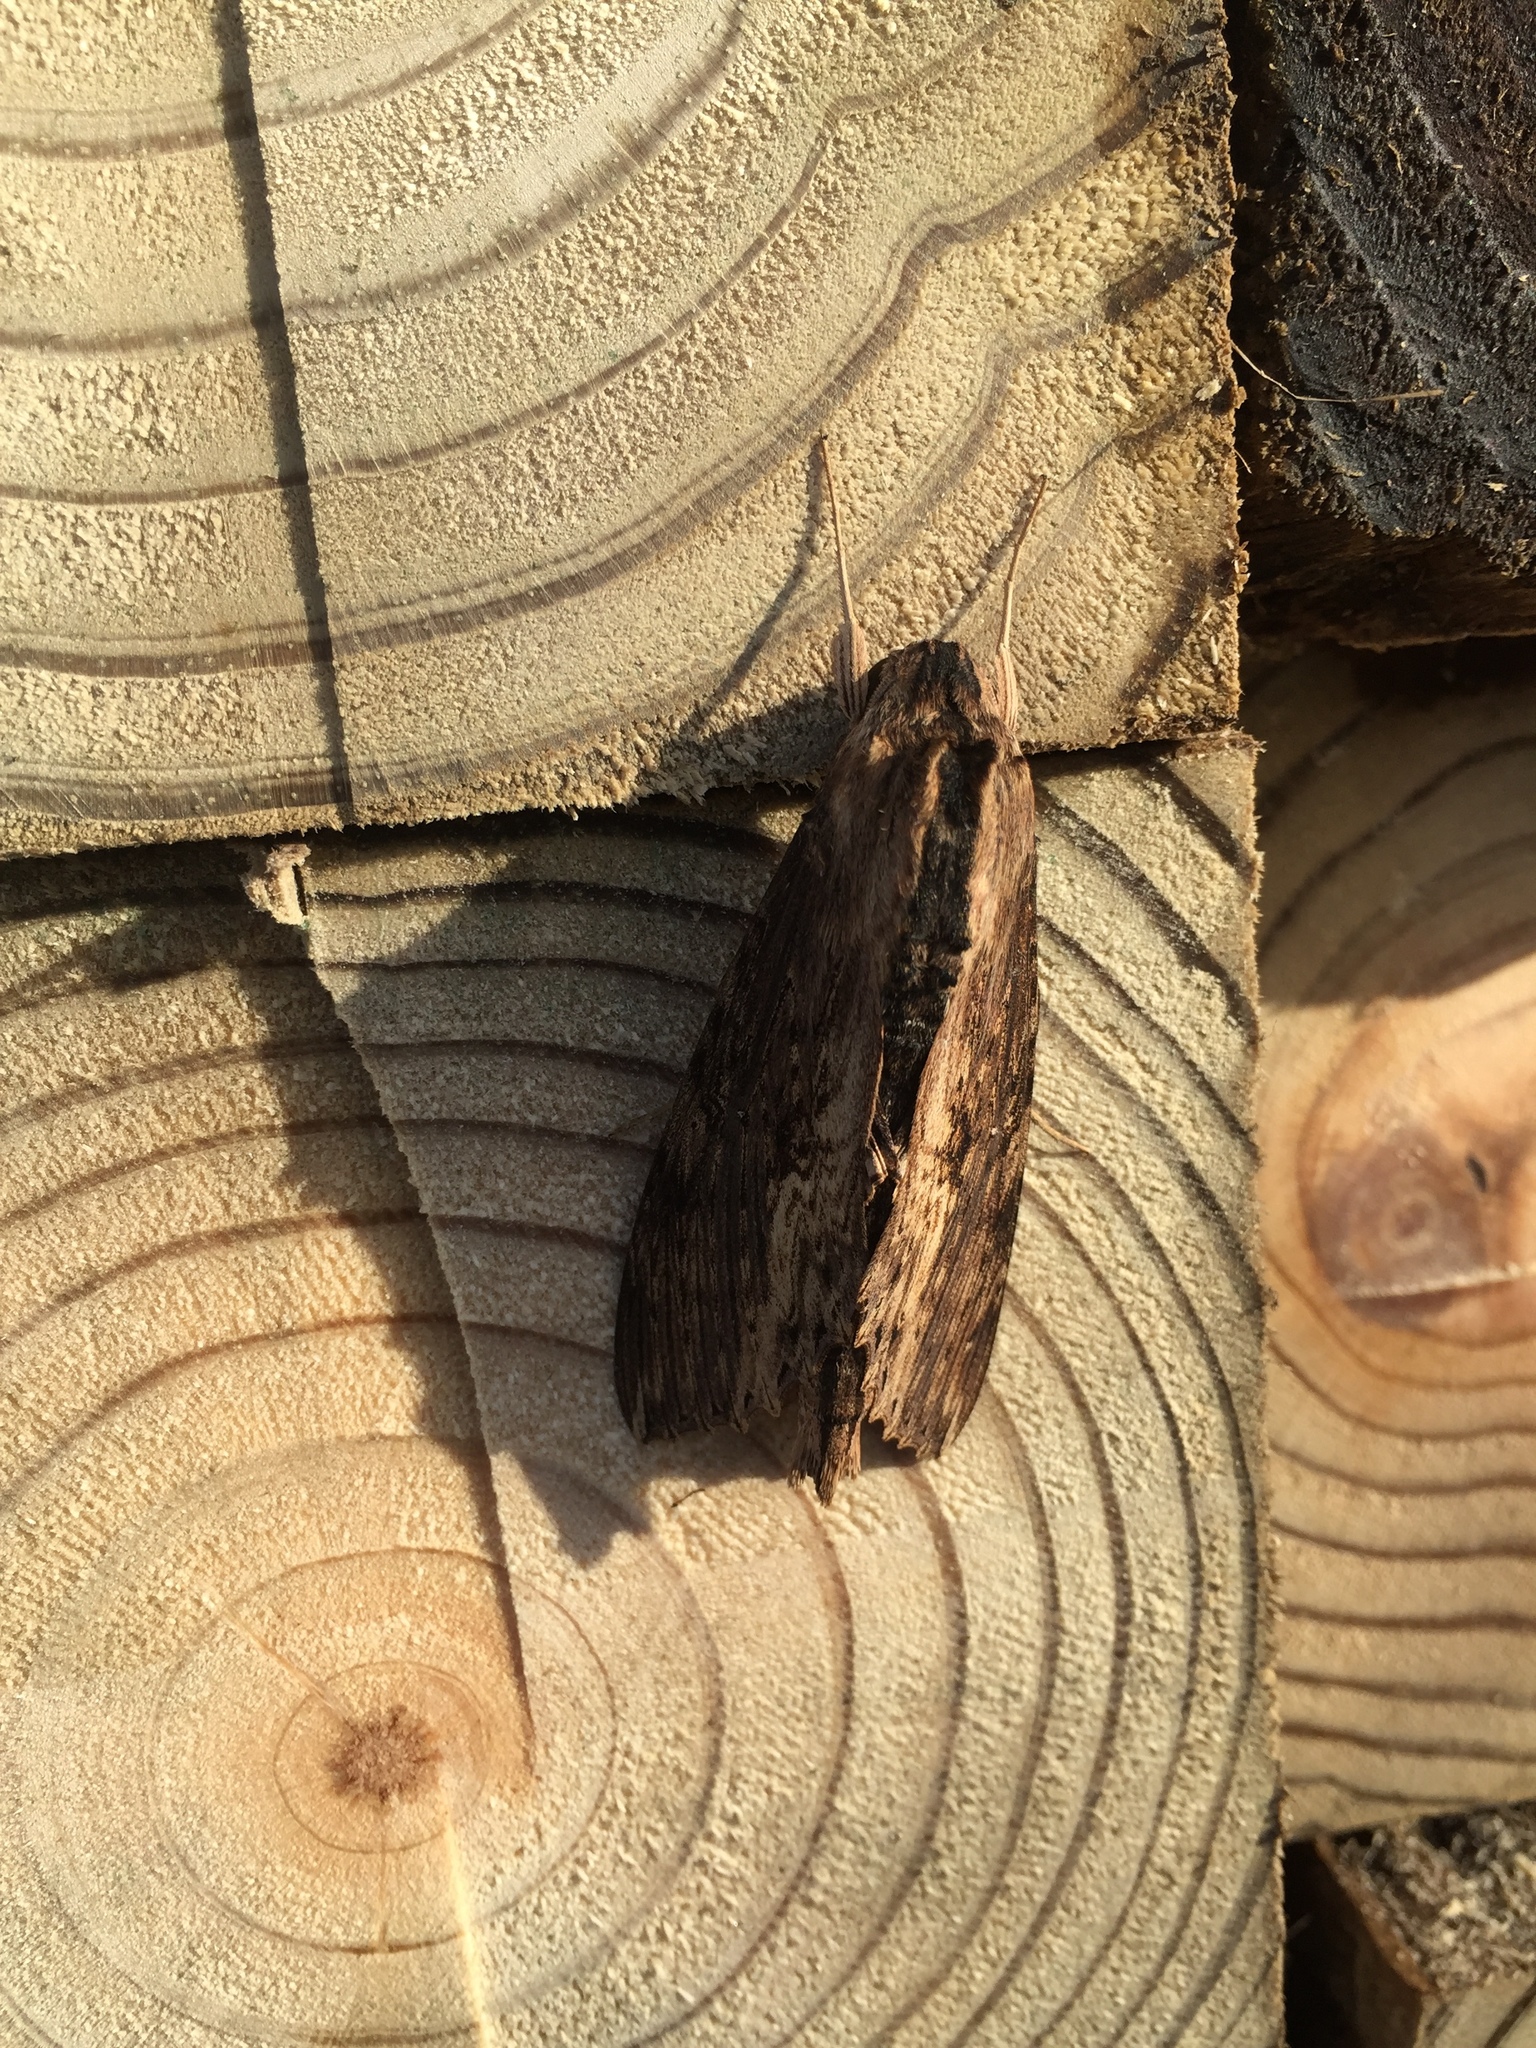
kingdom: Animalia
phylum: Arthropoda
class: Insecta
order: Lepidoptera
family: Sphingidae
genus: Erinnyis
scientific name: Erinnyis alope
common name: Alope sphinx
